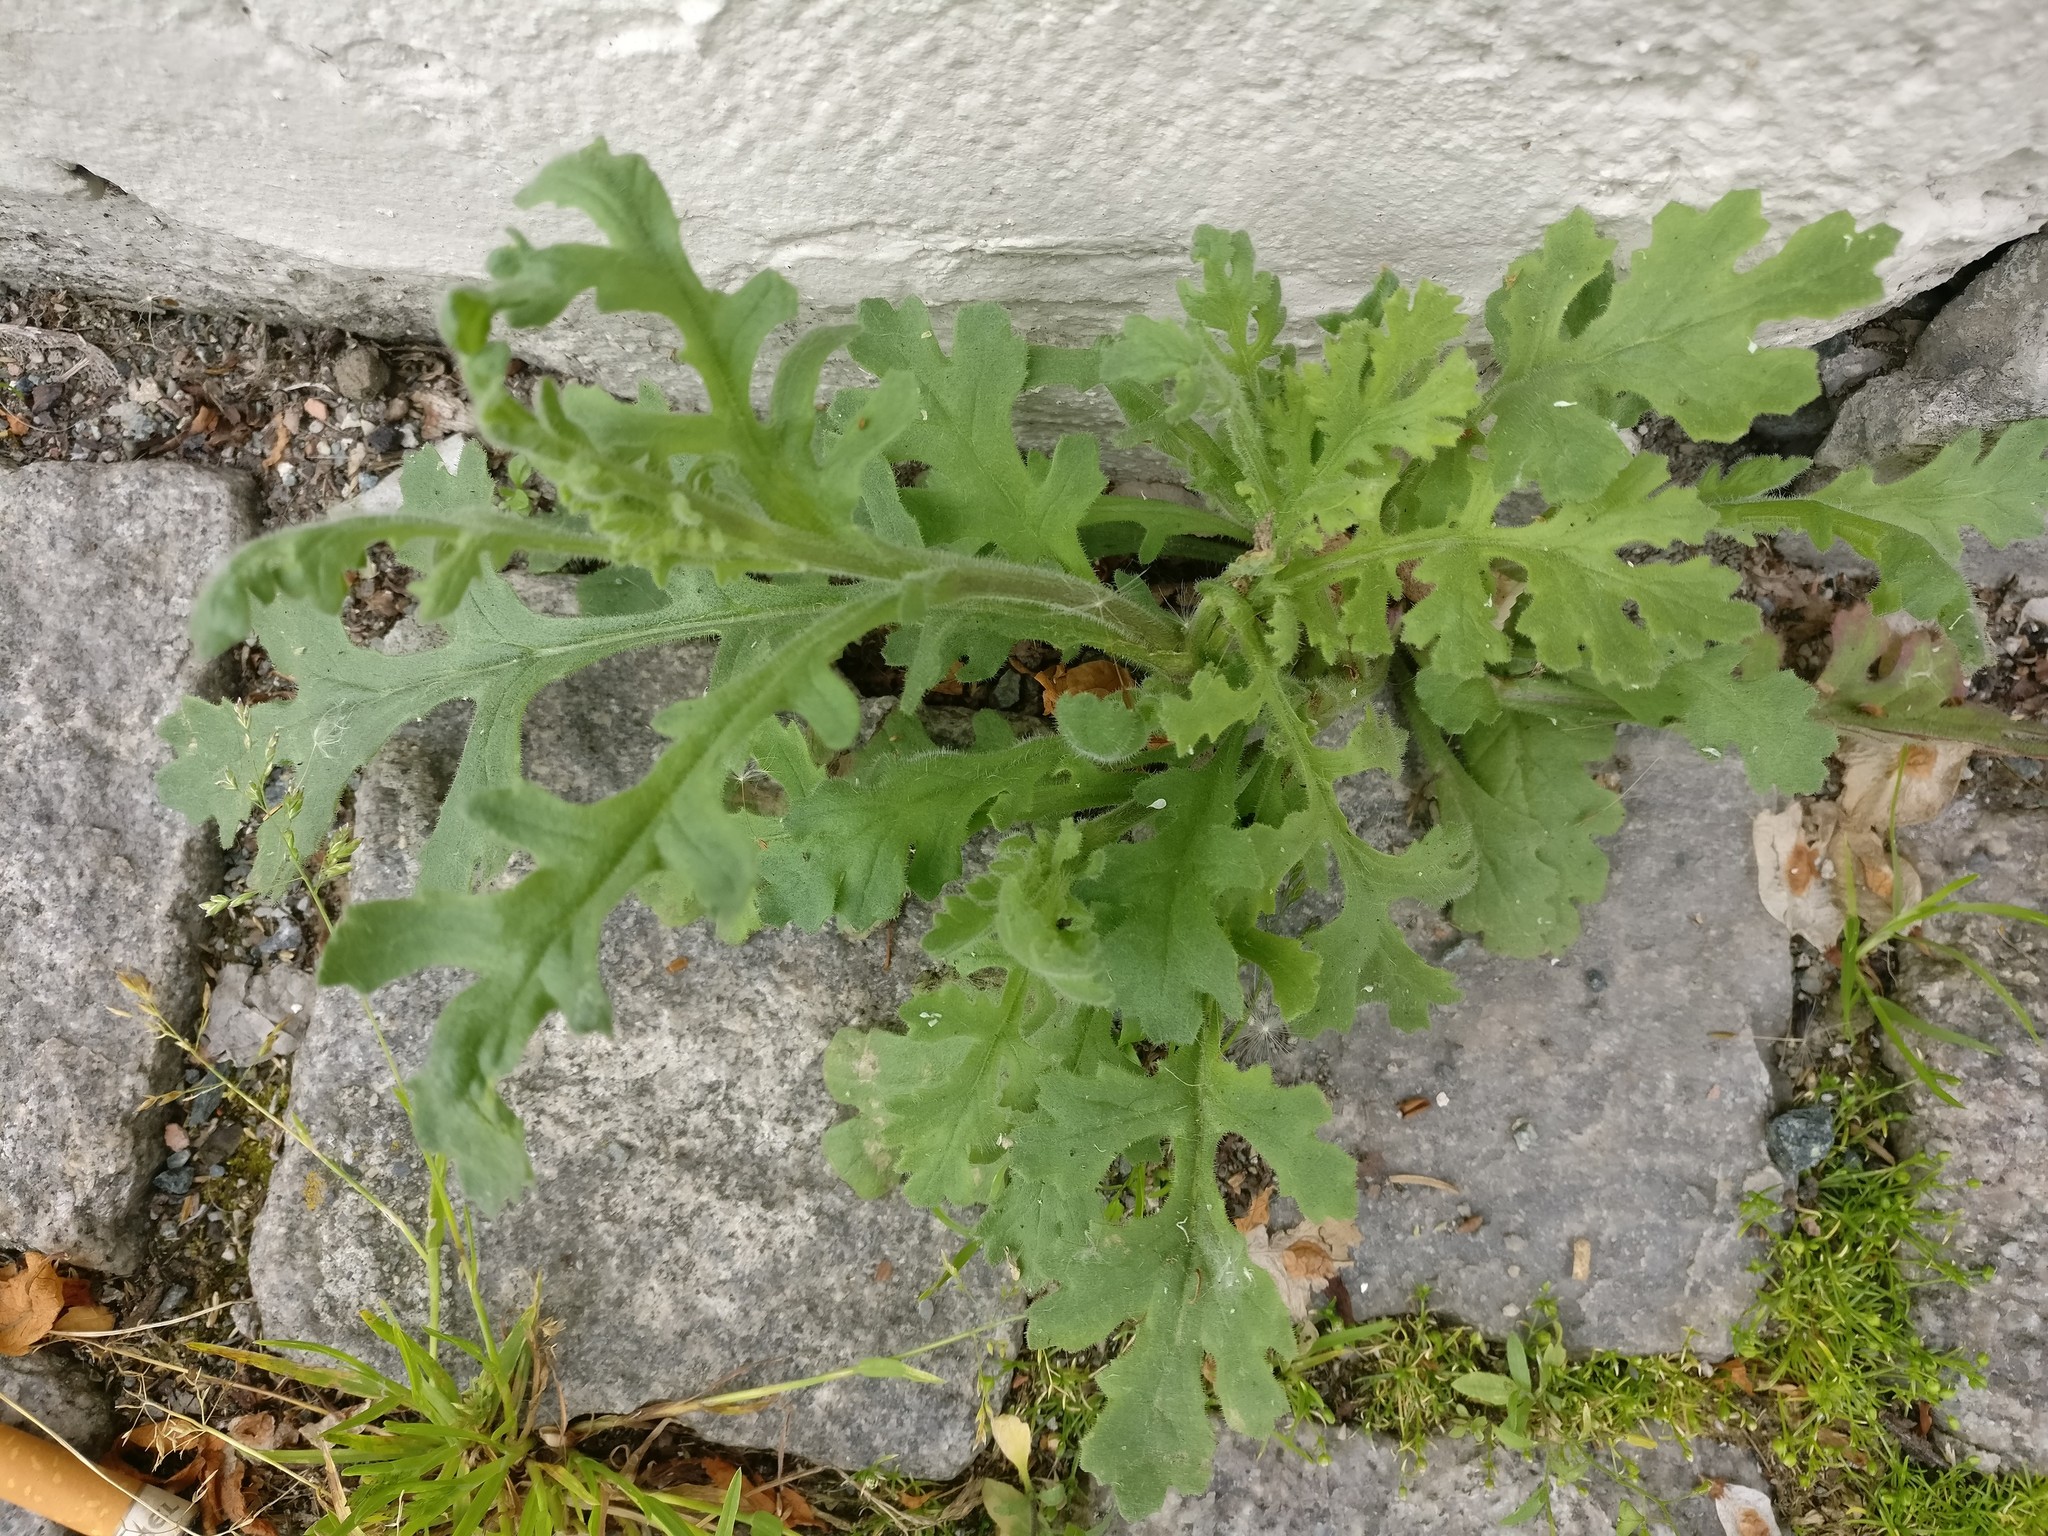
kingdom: Plantae
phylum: Tracheophyta
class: Magnoliopsida
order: Asterales
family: Asteraceae
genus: Senecio
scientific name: Senecio viscosus
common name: Sticky groundsel
